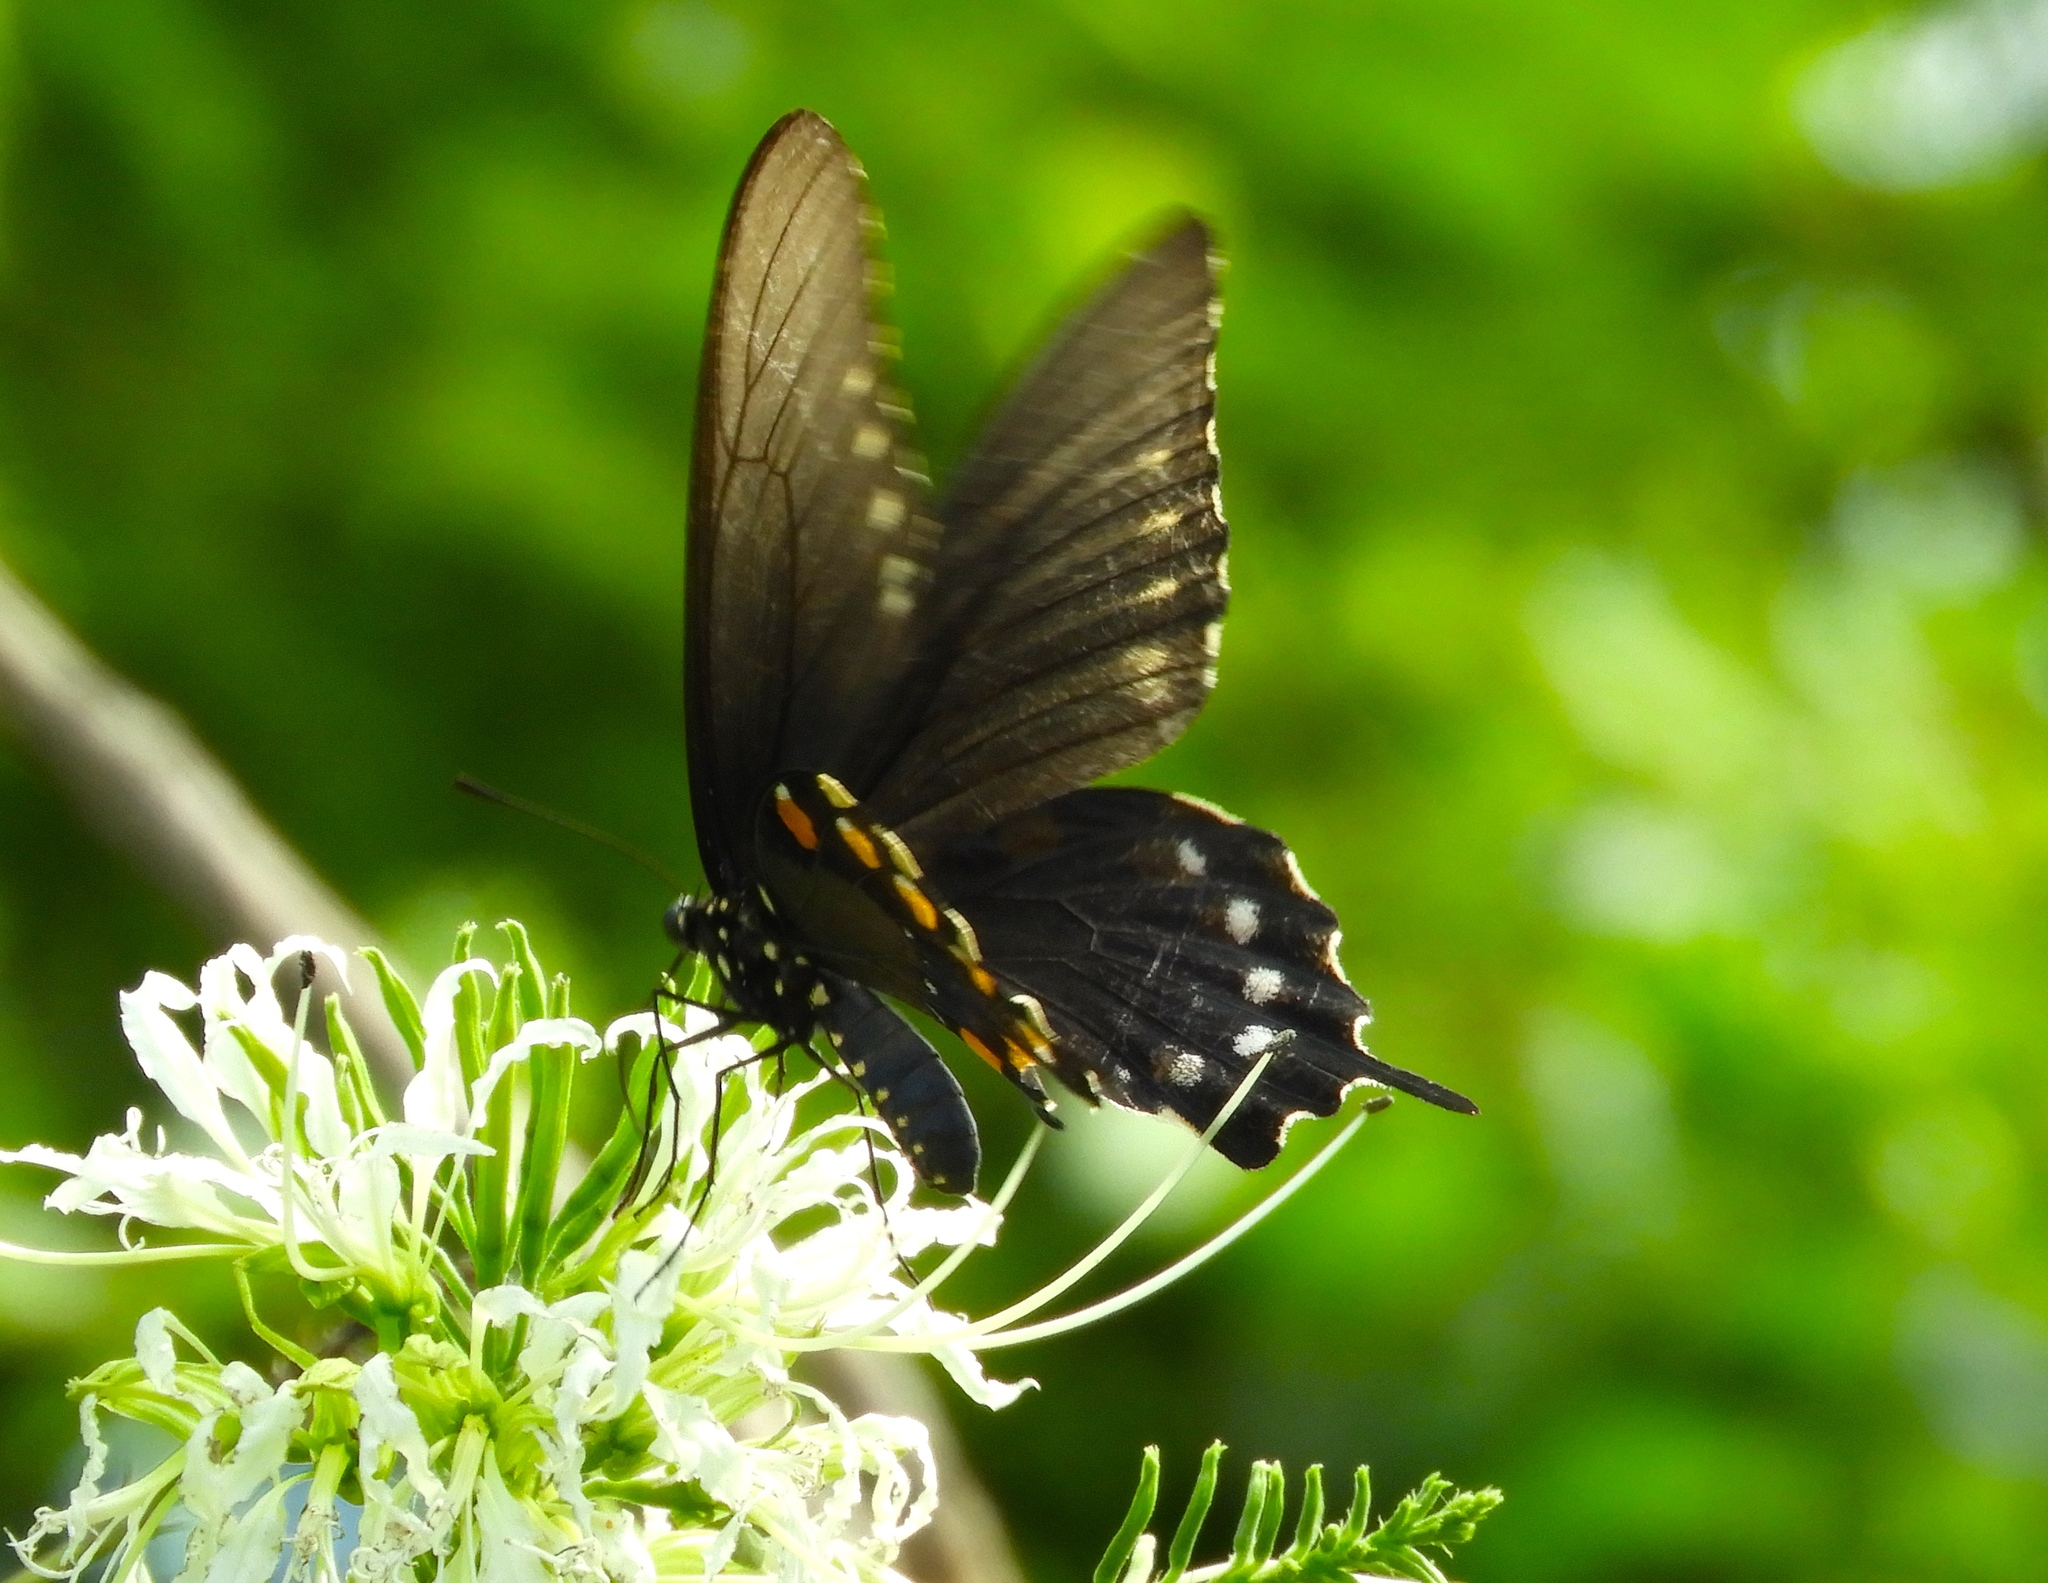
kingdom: Animalia
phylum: Arthropoda
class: Insecta
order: Lepidoptera
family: Papilionidae
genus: Battus
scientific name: Battus philenor
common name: Pipevine swallowtail
